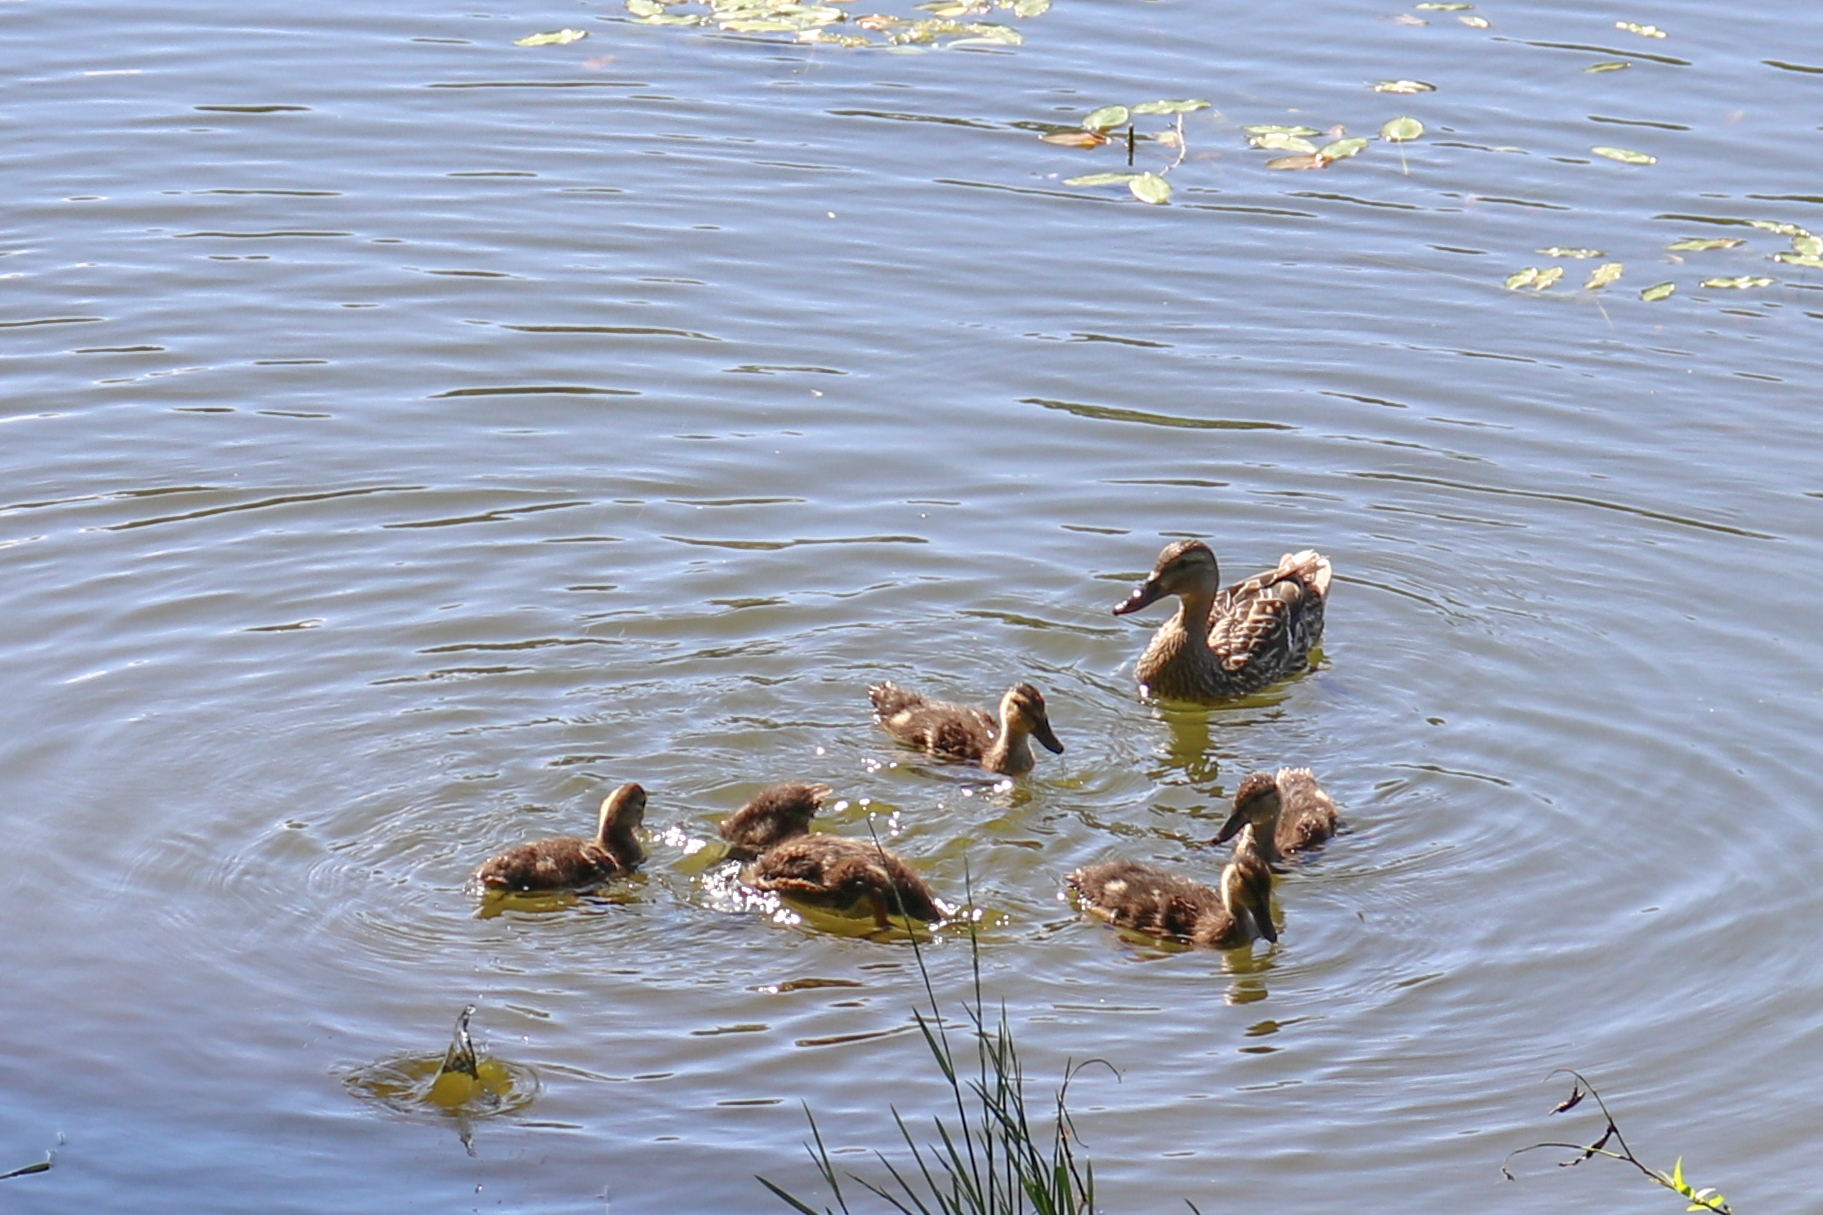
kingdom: Animalia
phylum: Chordata
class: Aves
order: Anseriformes
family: Anatidae
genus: Anas
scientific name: Anas platyrhynchos
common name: Mallard
